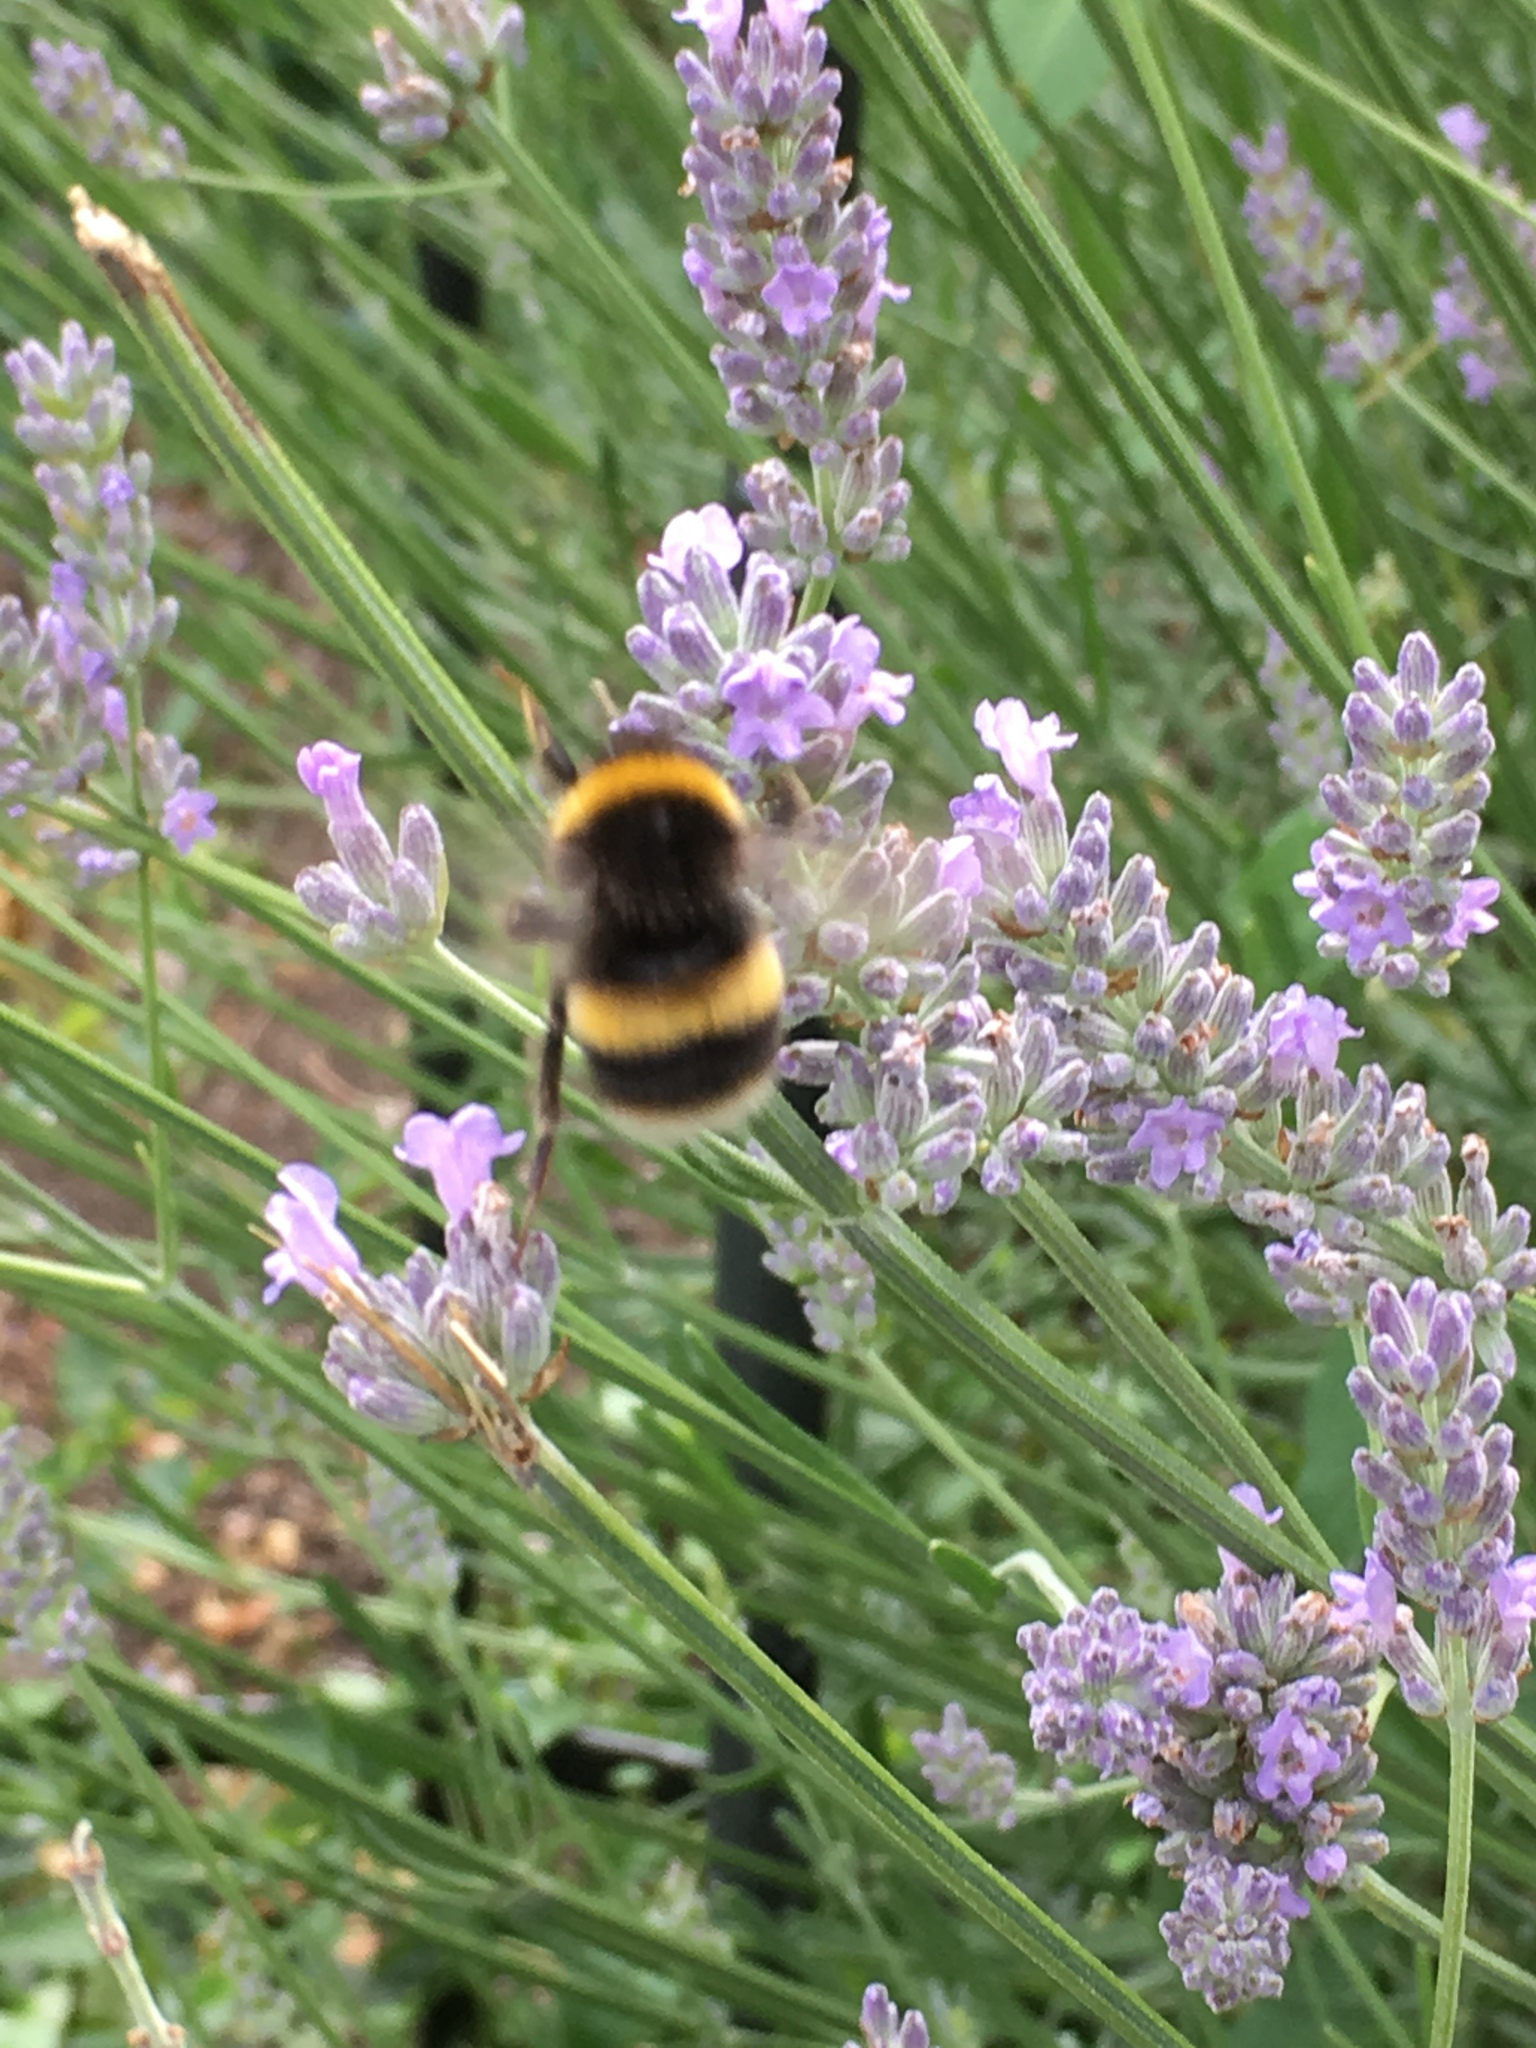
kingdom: Animalia
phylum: Arthropoda
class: Insecta
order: Hymenoptera
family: Apidae
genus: Bombus
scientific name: Bombus terrestris
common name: Buff-tailed bumblebee
